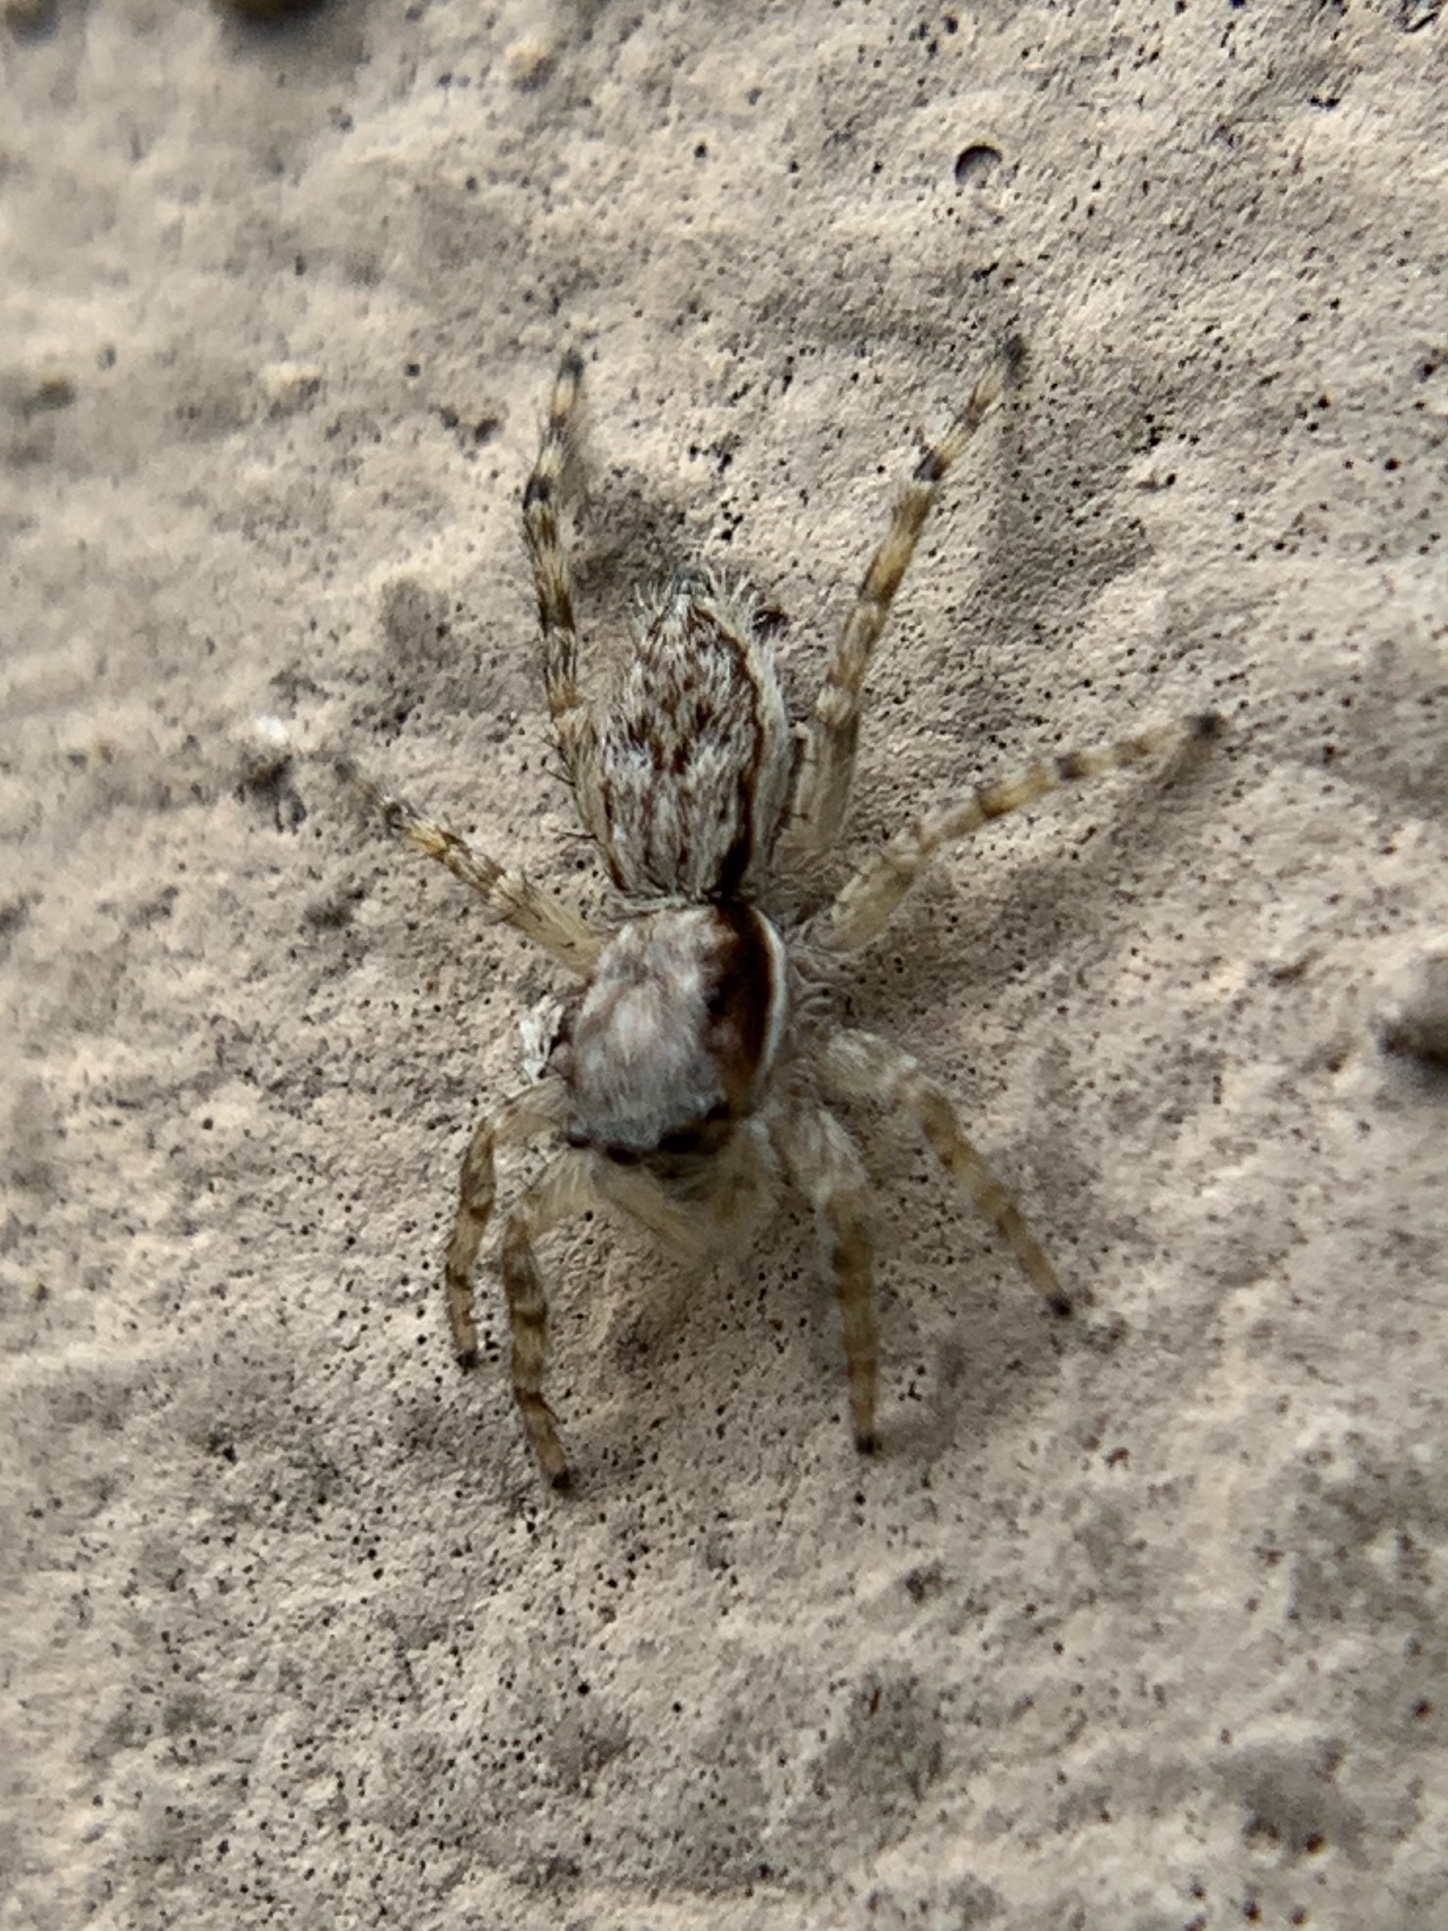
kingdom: Animalia
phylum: Arthropoda
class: Arachnida
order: Araneae
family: Salticidae
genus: Menemerus
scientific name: Menemerus bivittatus
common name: Gray wall jumper
